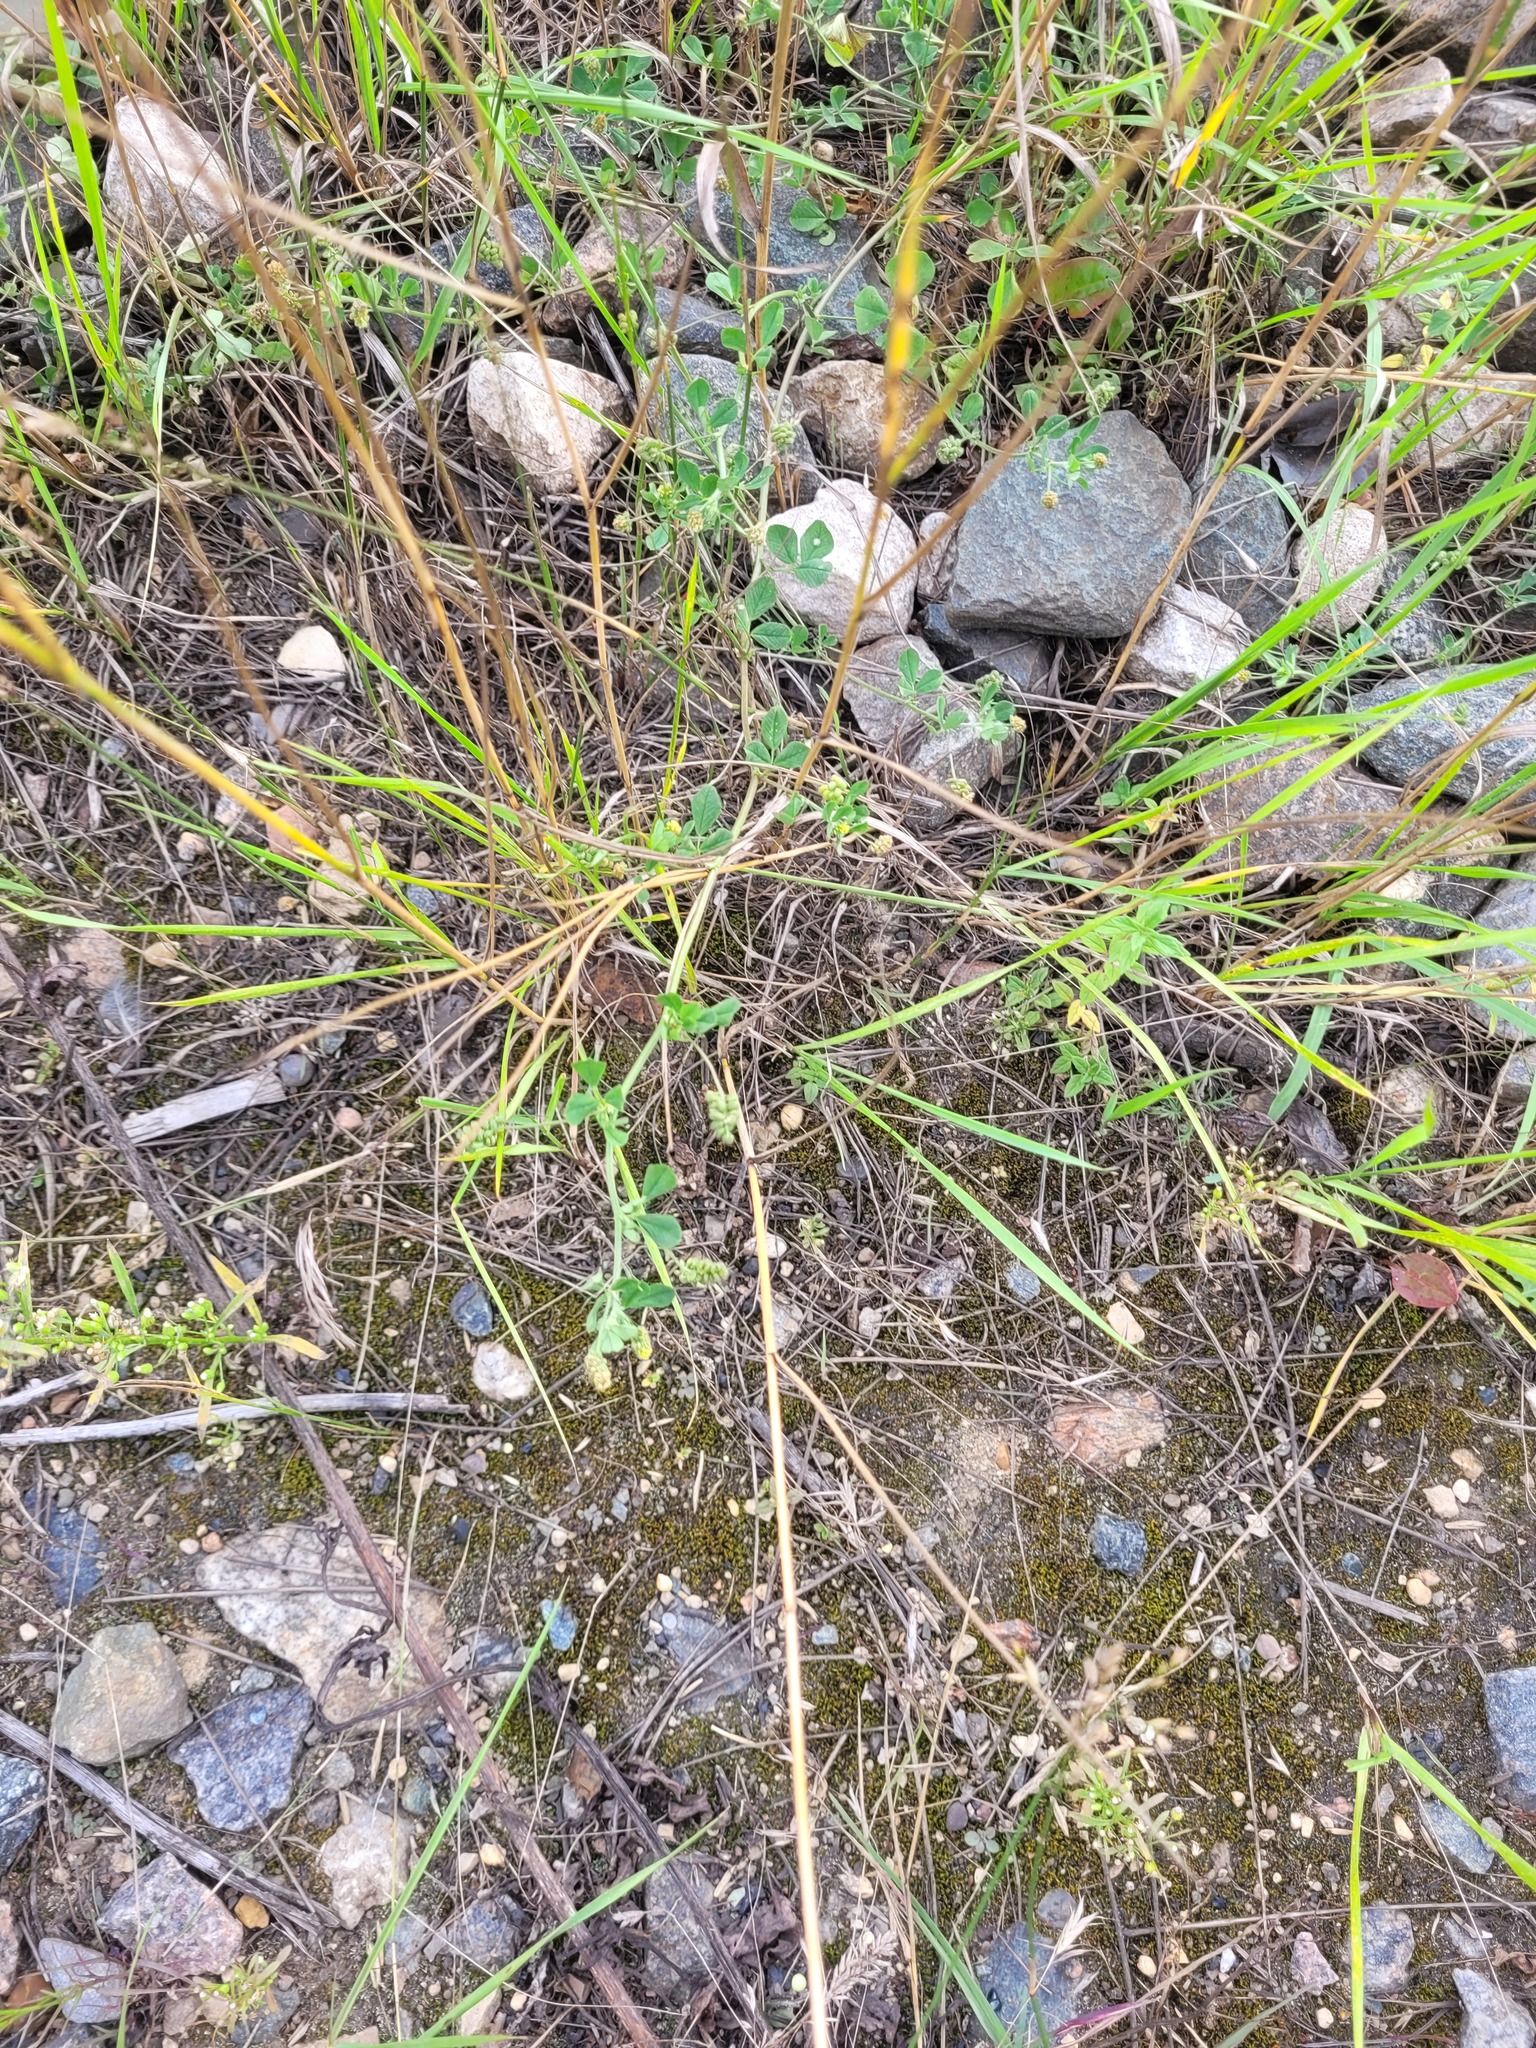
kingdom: Plantae
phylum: Tracheophyta
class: Magnoliopsida
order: Fabales
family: Fabaceae
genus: Medicago
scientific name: Medicago lupulina
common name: Black medick
